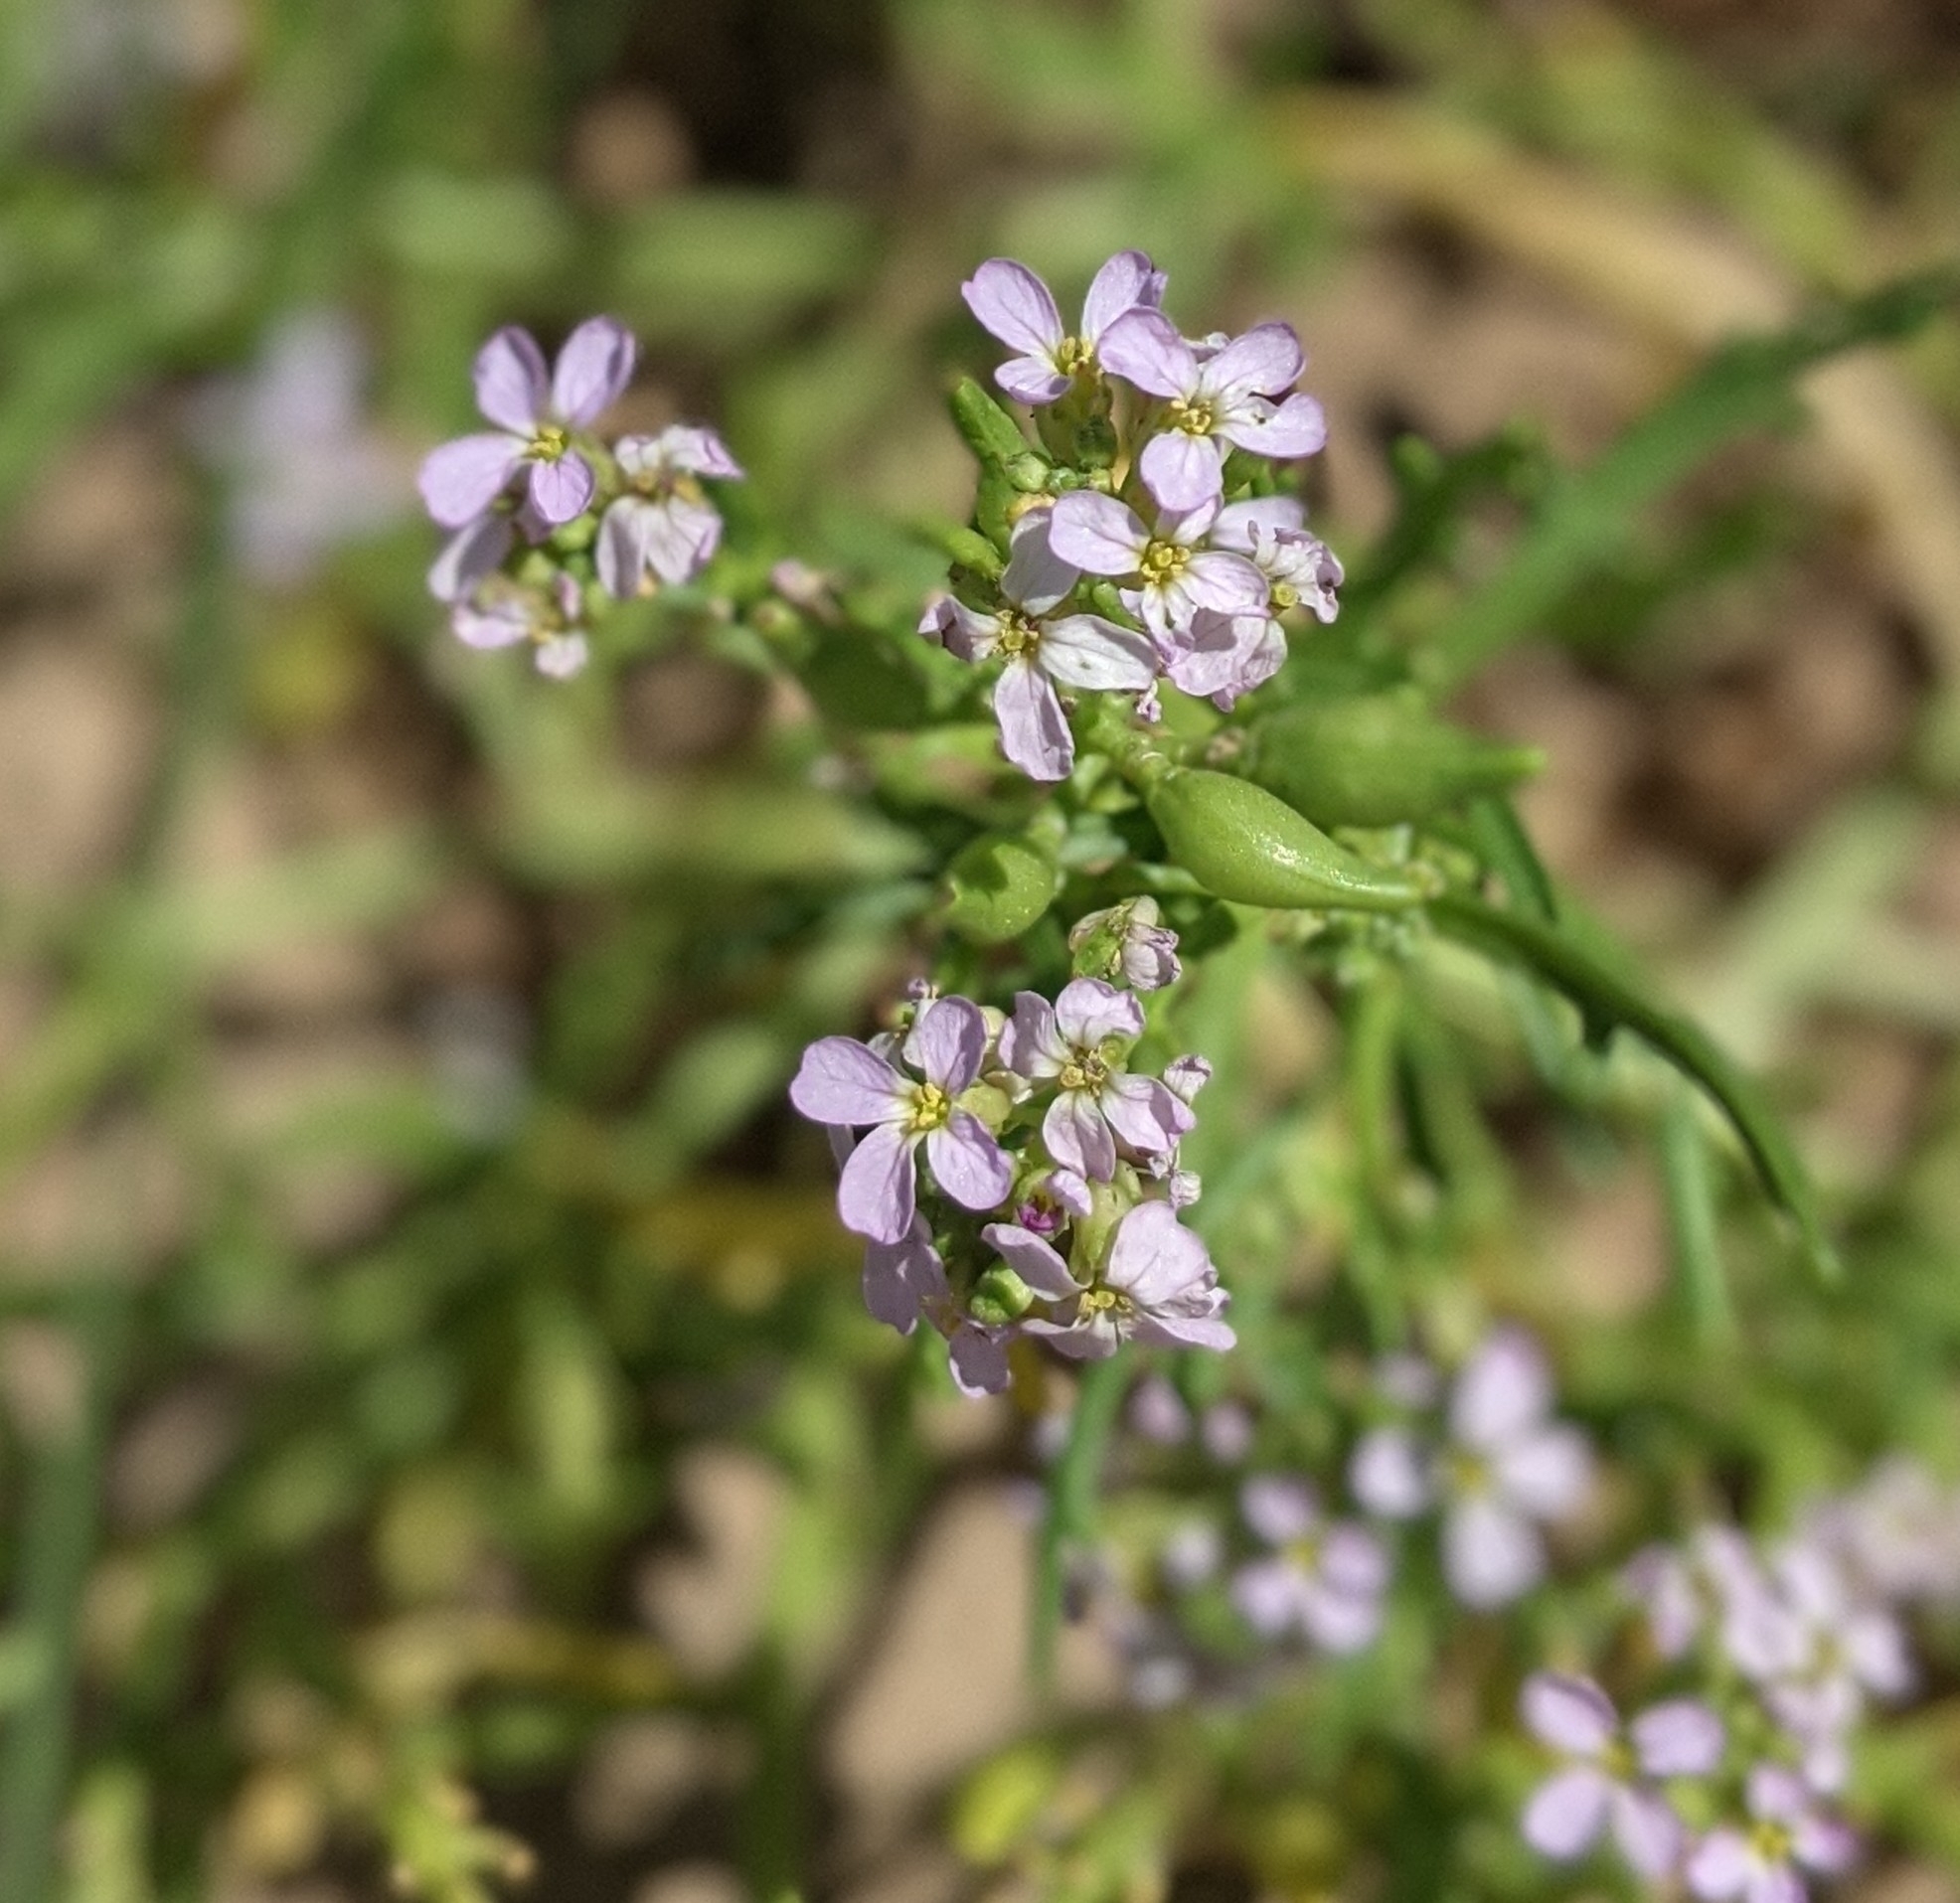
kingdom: Plantae
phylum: Tracheophyta
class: Magnoliopsida
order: Brassicales
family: Brassicaceae
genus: Cakile
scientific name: Cakile maritima
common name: Sea rocket
